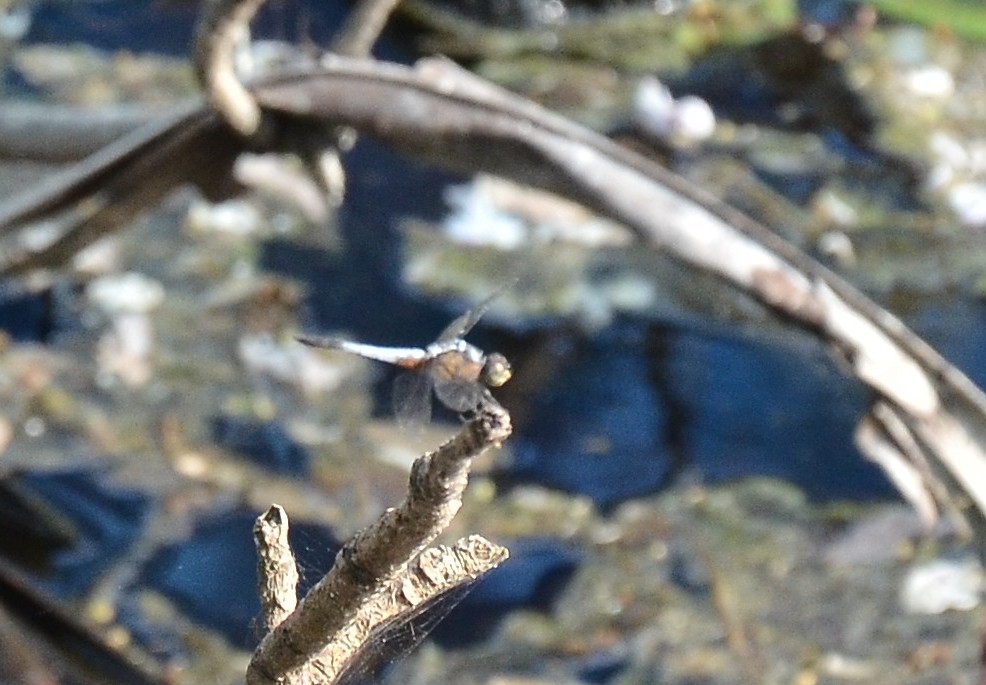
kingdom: Animalia
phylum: Arthropoda
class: Insecta
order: Odonata
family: Libellulidae
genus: Brachydiplax
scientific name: Brachydiplax chalybea
